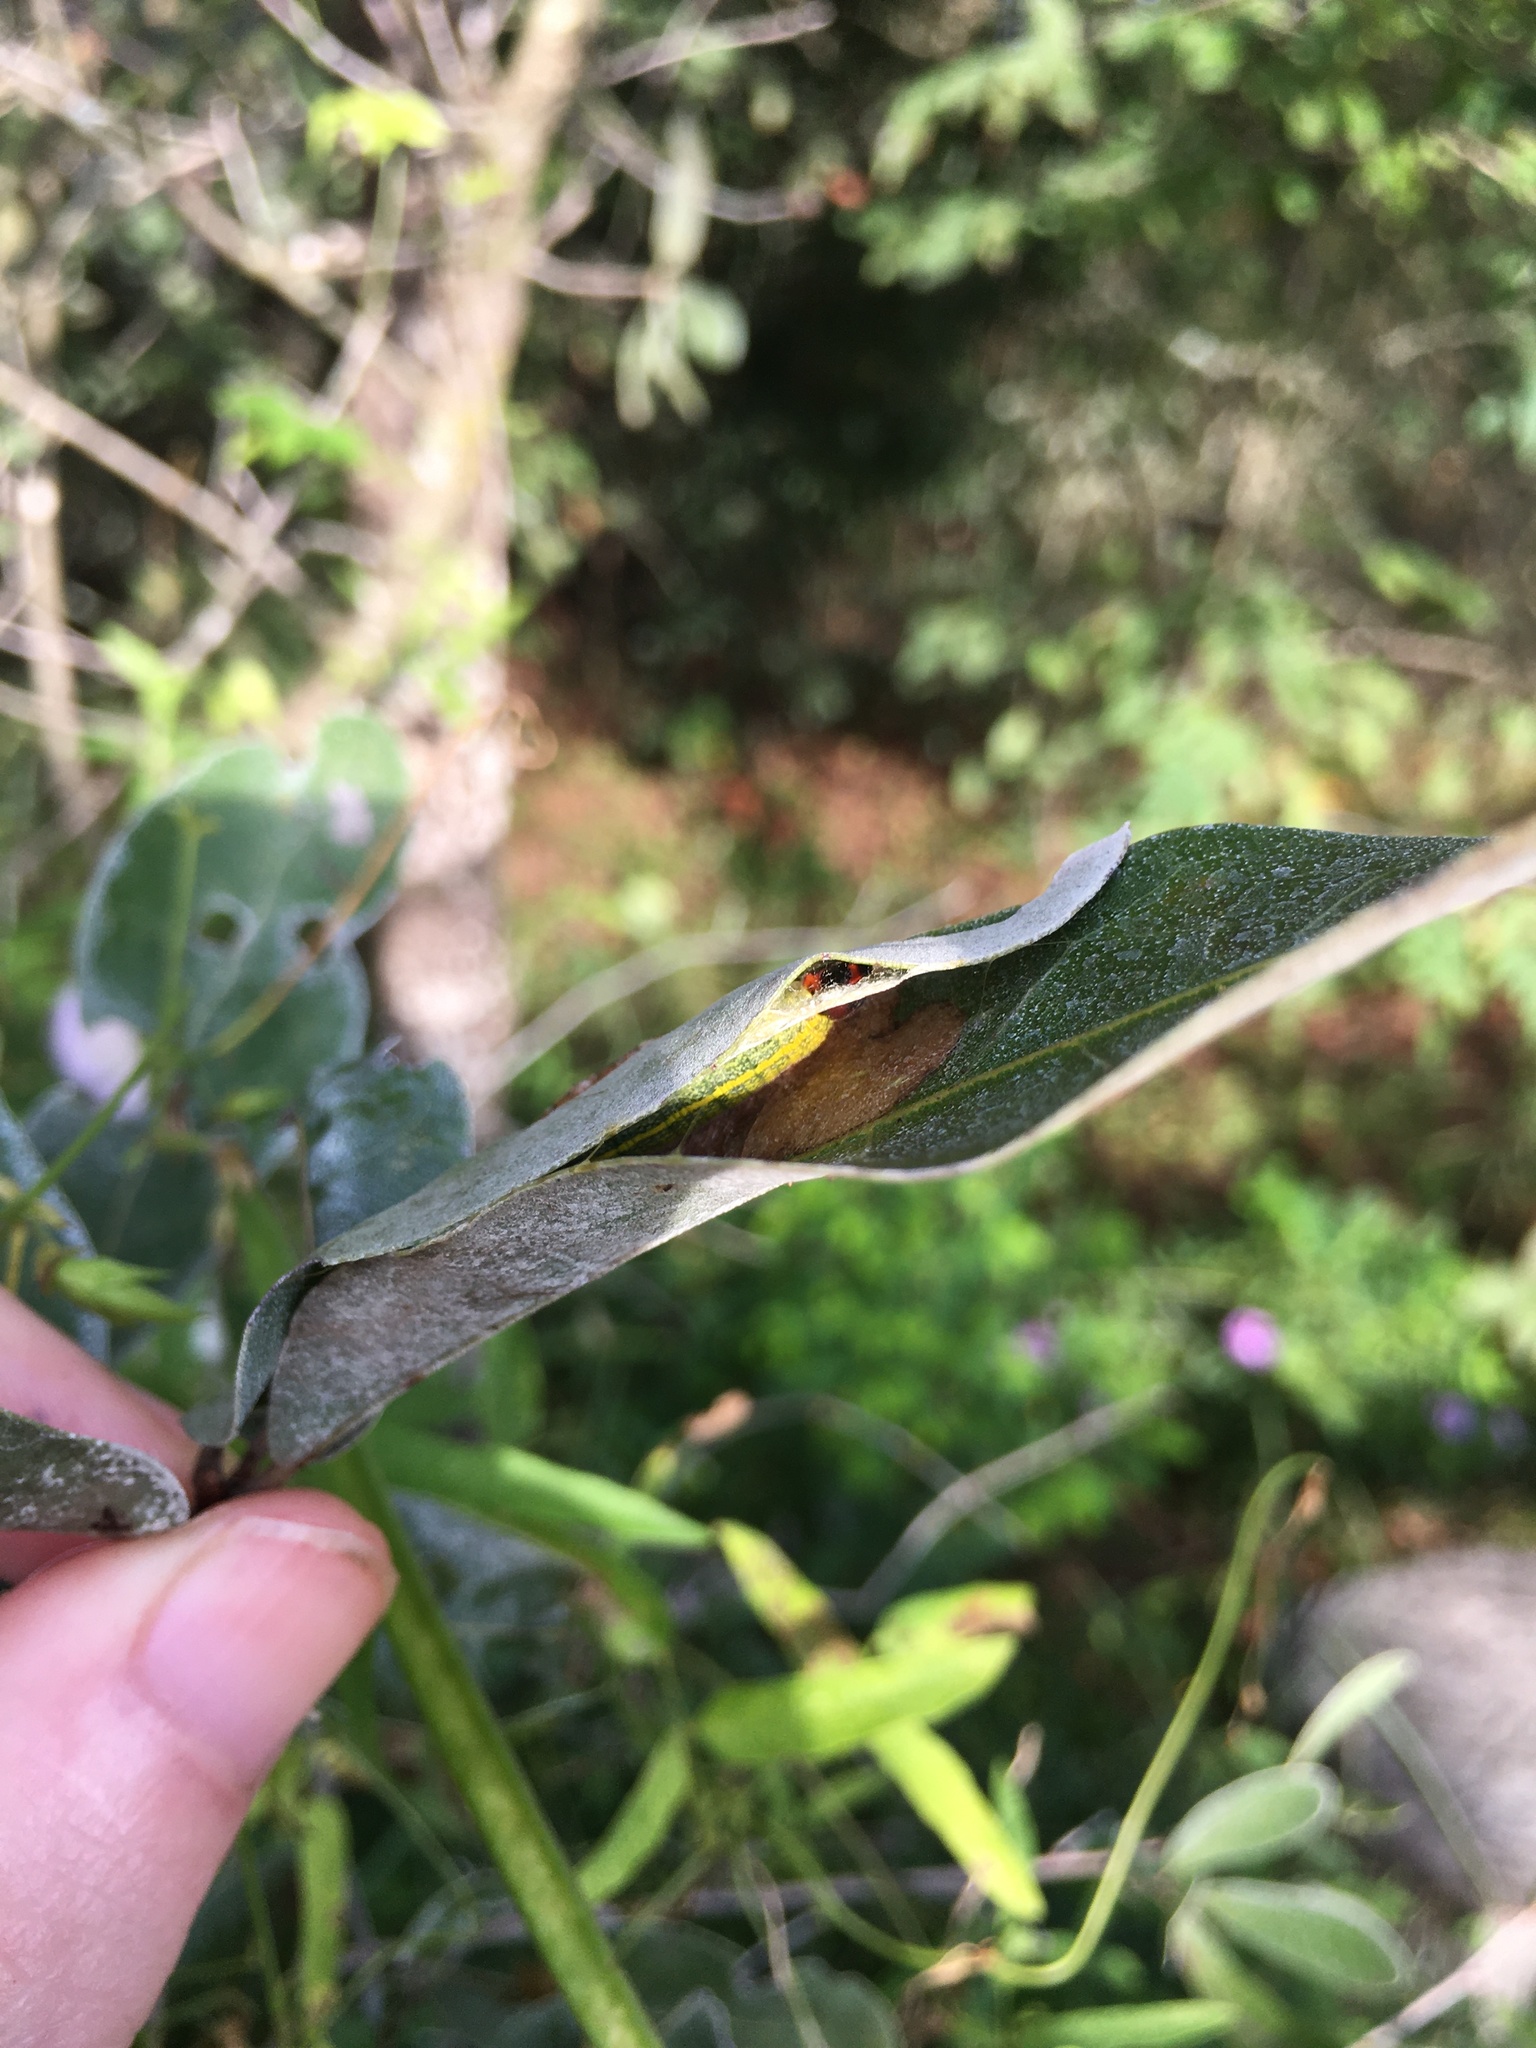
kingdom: Animalia
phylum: Arthropoda
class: Insecta
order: Lepidoptera
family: Hesperiidae
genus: Urbanus
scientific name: Urbanus proteus
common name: Long-tailed skipper
